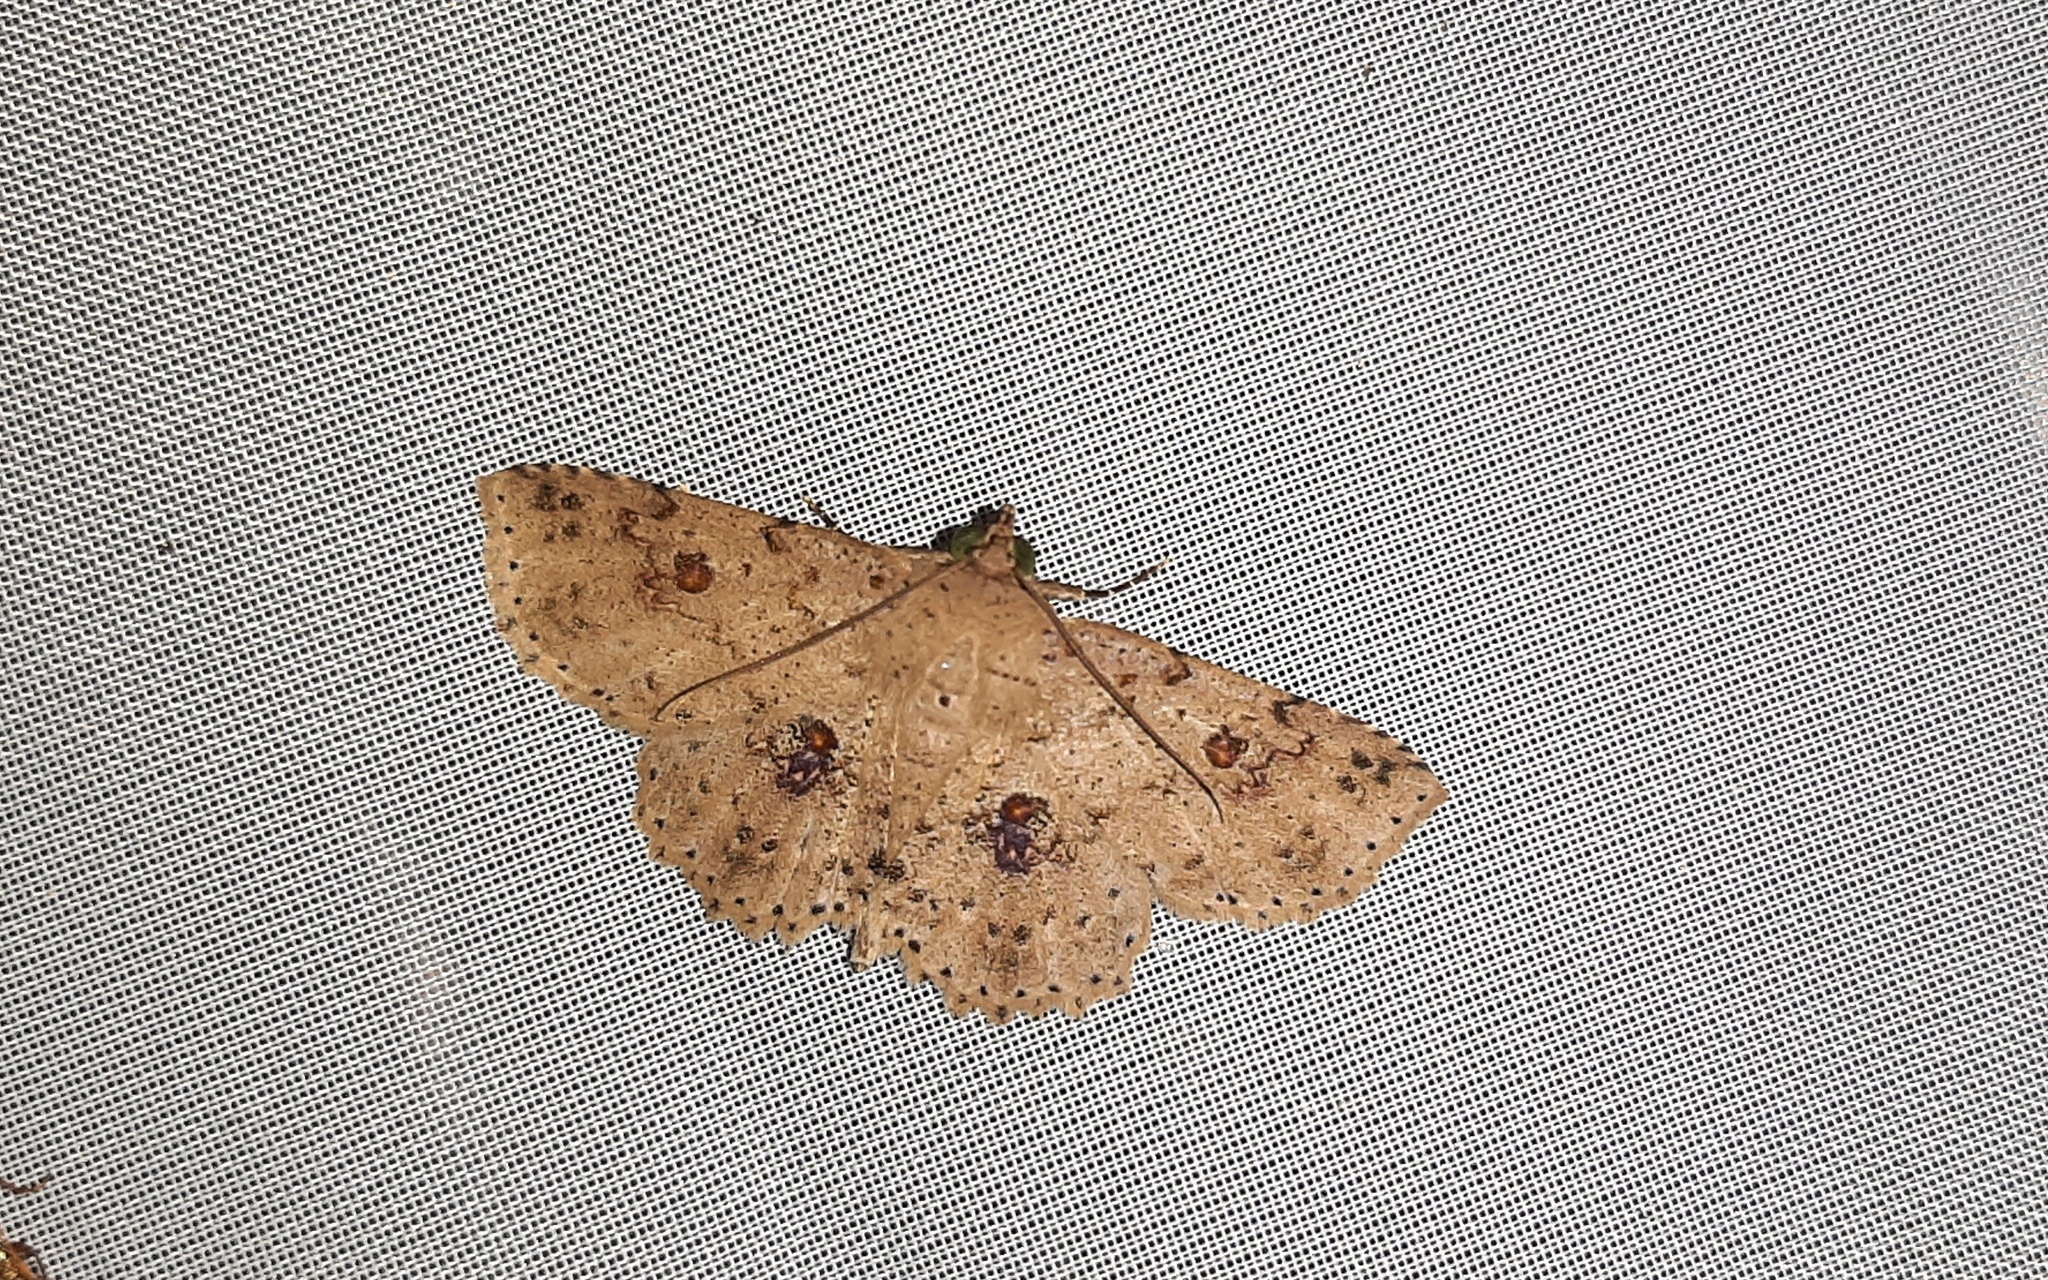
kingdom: Animalia
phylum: Arthropoda
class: Insecta
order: Lepidoptera
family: Erebidae
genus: Antiblemma
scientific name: Antiblemma erythromma
